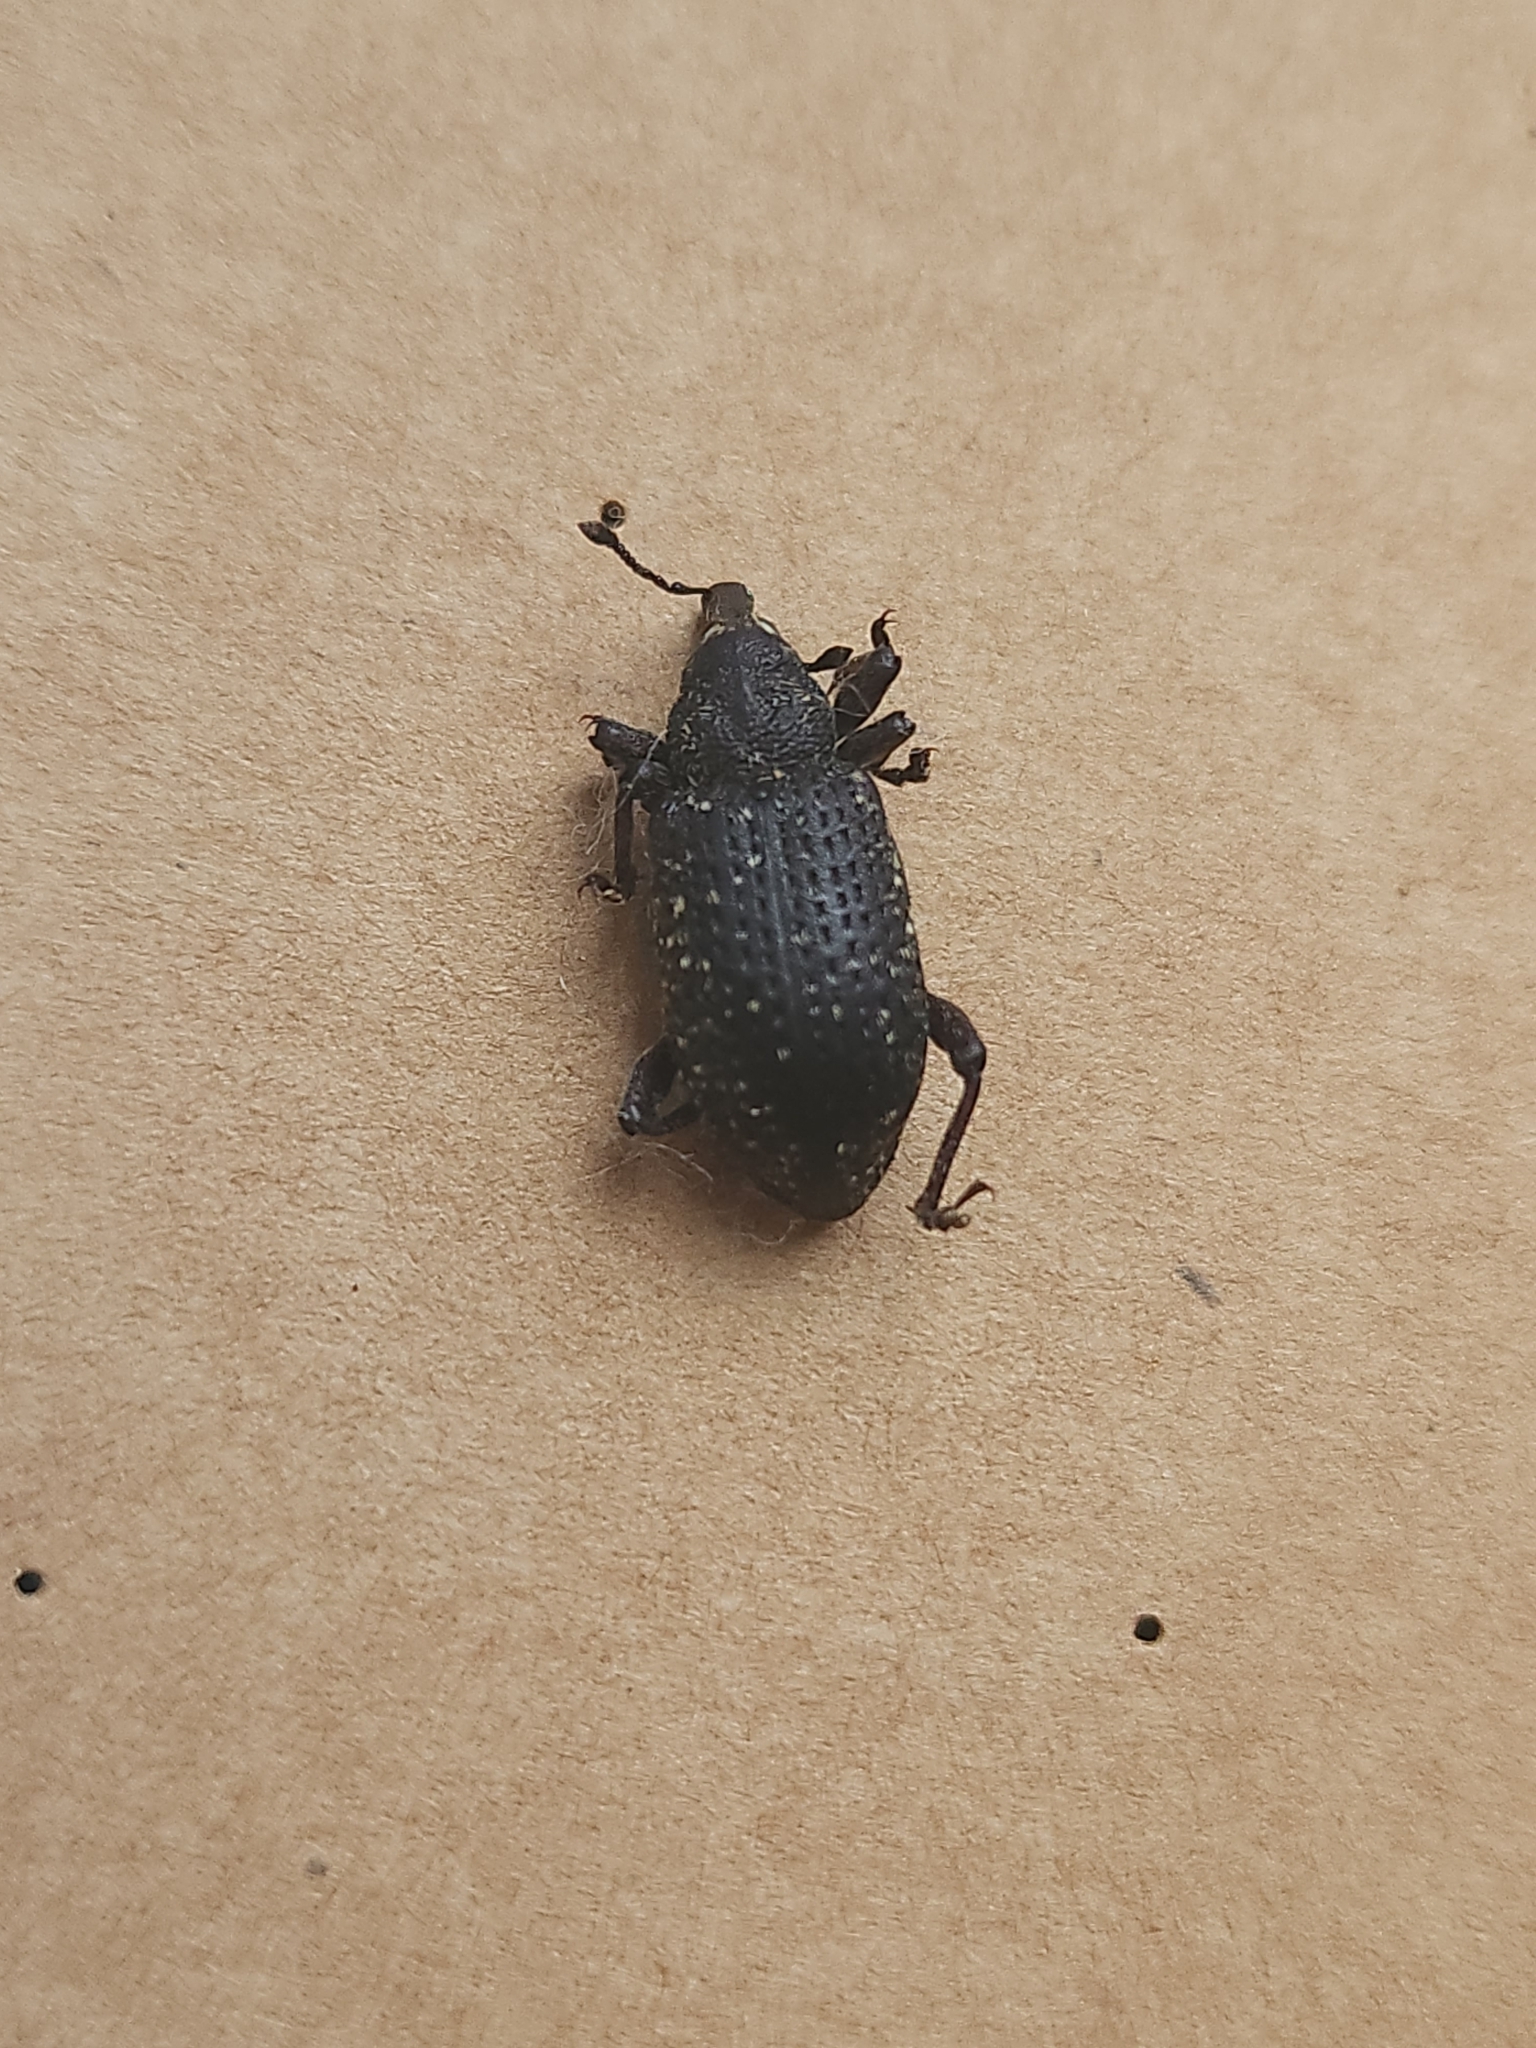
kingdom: Animalia
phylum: Arthropoda
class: Insecta
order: Coleoptera
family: Curculionidae
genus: Hylobius
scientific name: Hylobius excavatus
